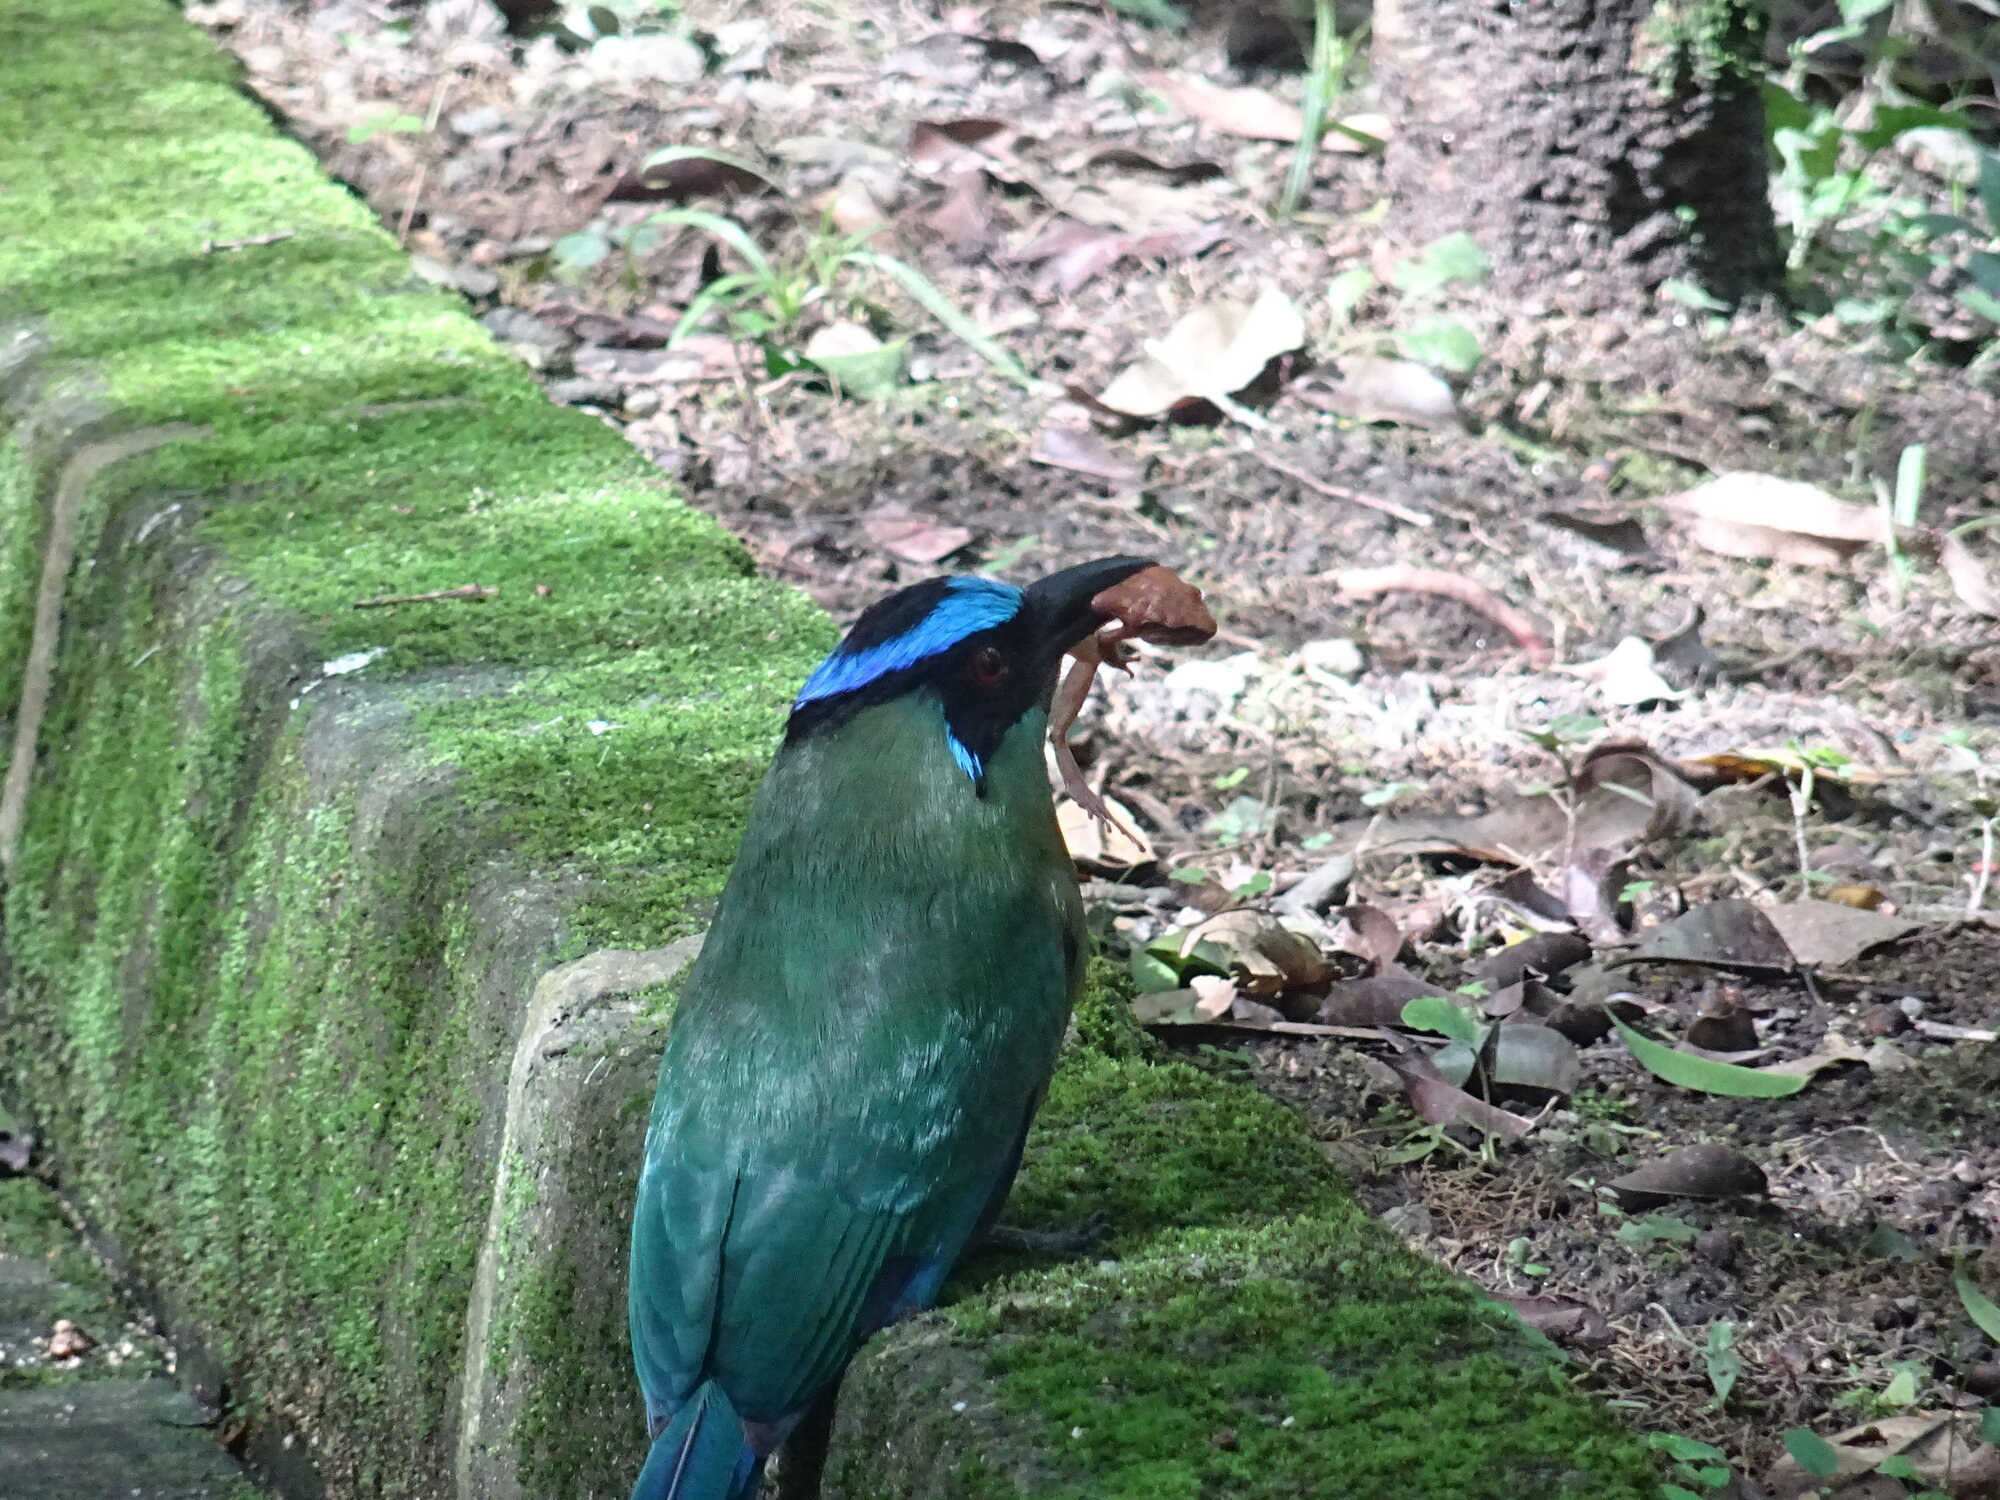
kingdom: Animalia
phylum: Chordata
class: Aves
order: Coraciiformes
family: Momotidae
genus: Momotus
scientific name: Momotus aequatorialis
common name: Andean motmot
